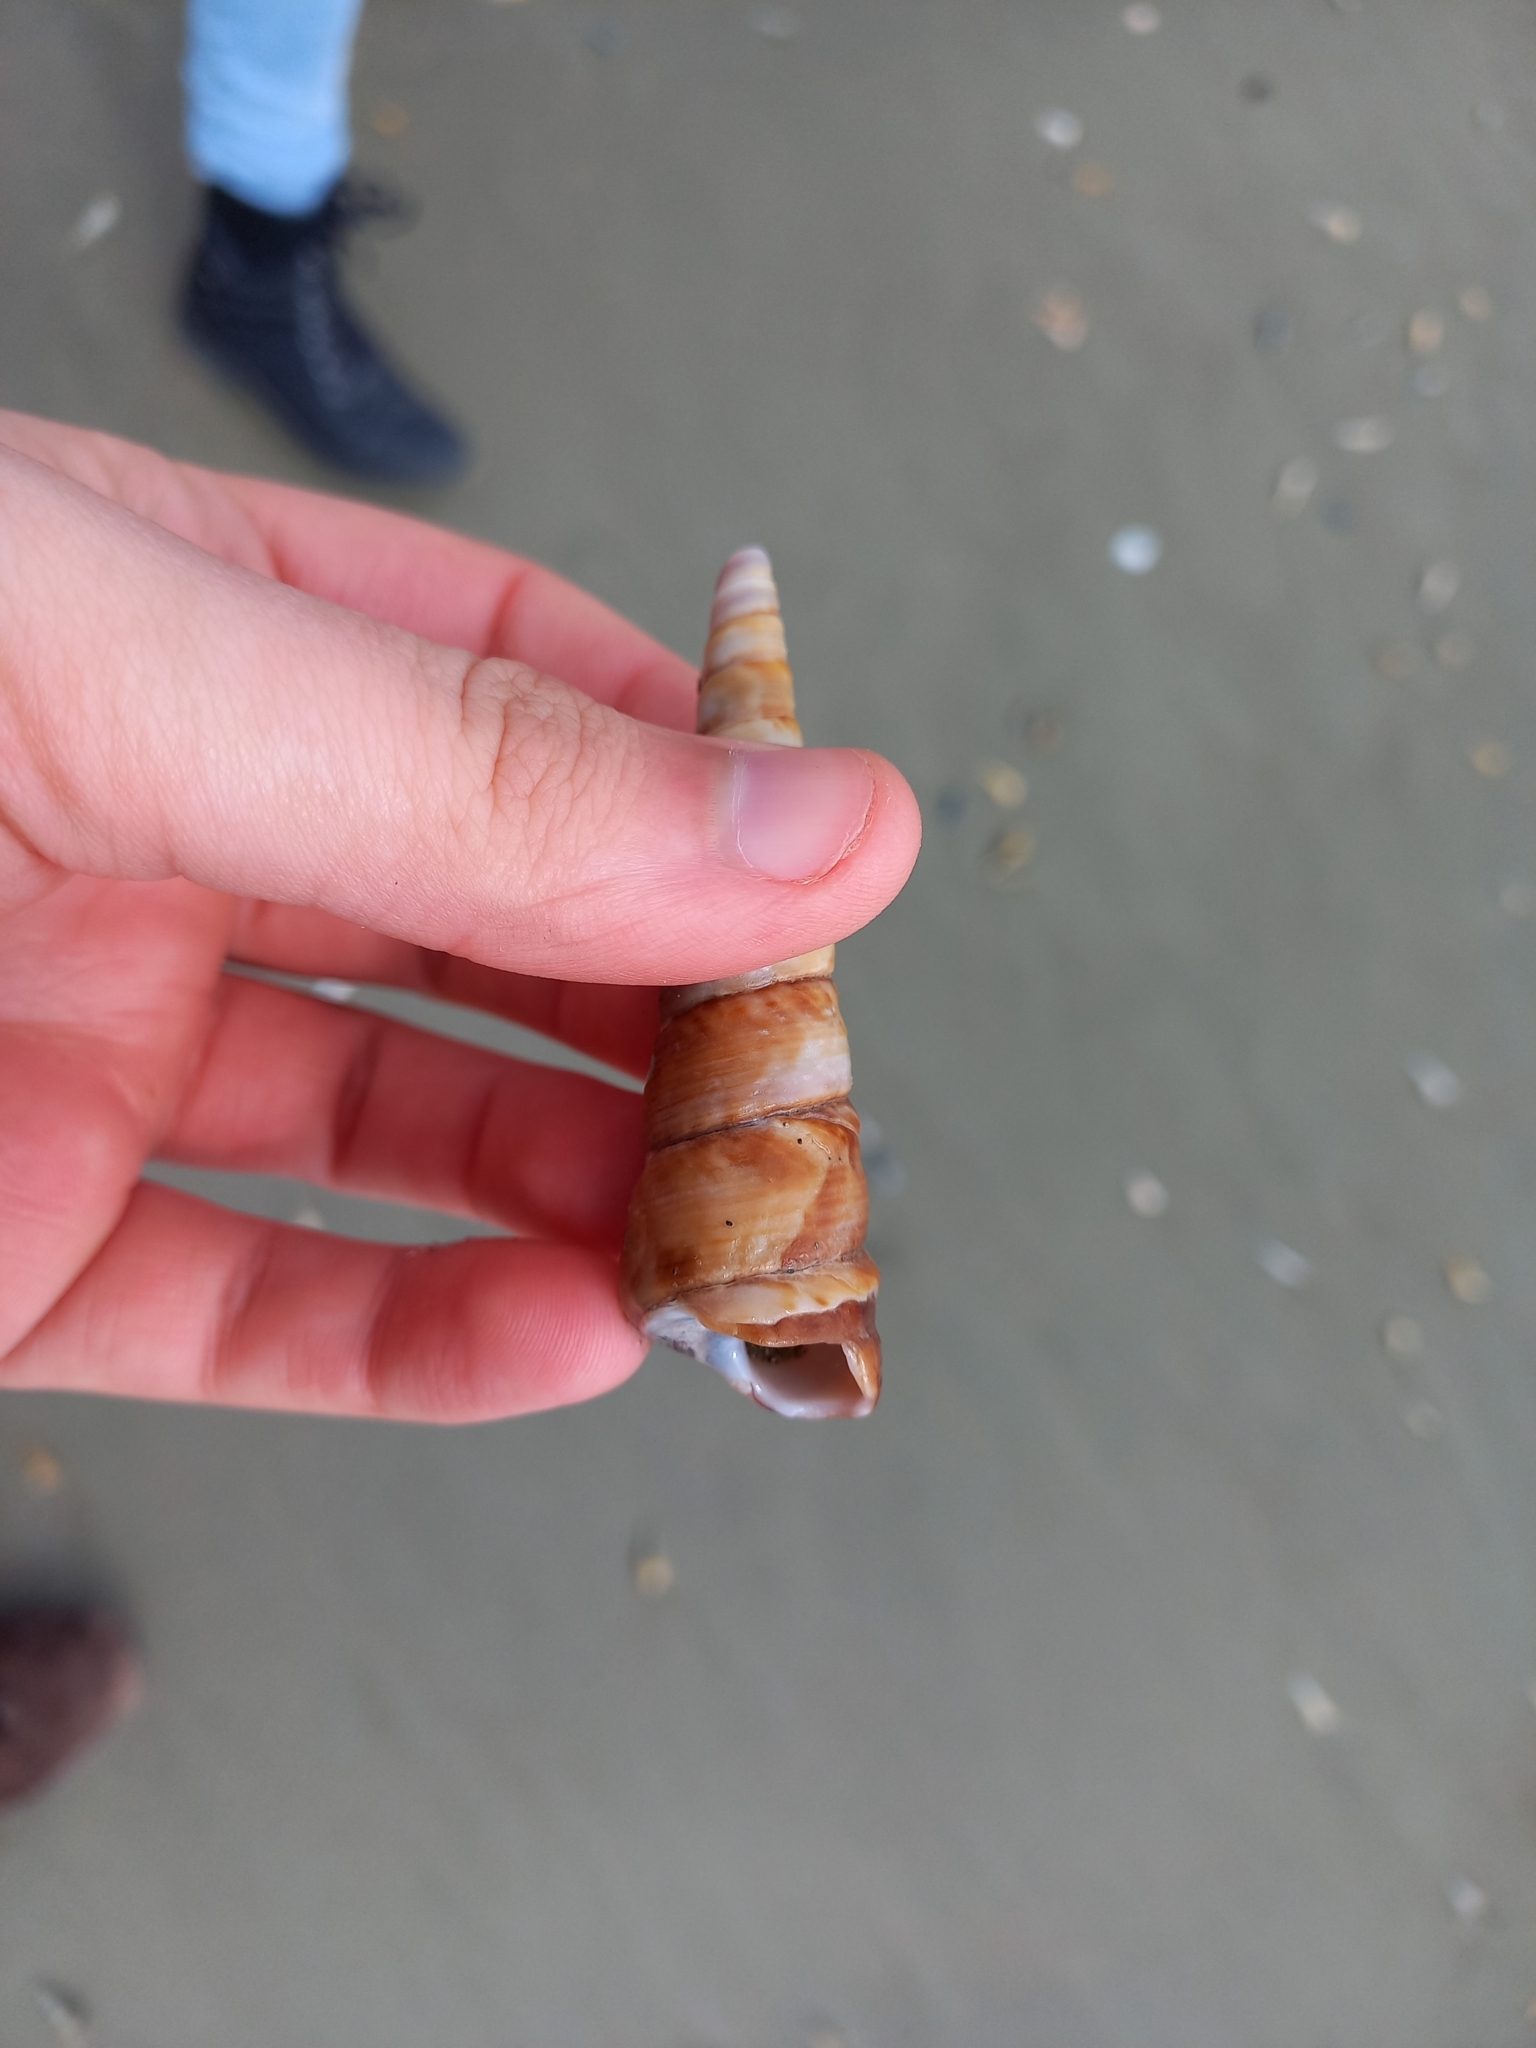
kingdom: Animalia
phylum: Mollusca
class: Gastropoda
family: Turritellidae
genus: Maoricolpus
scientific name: Maoricolpus roseus
